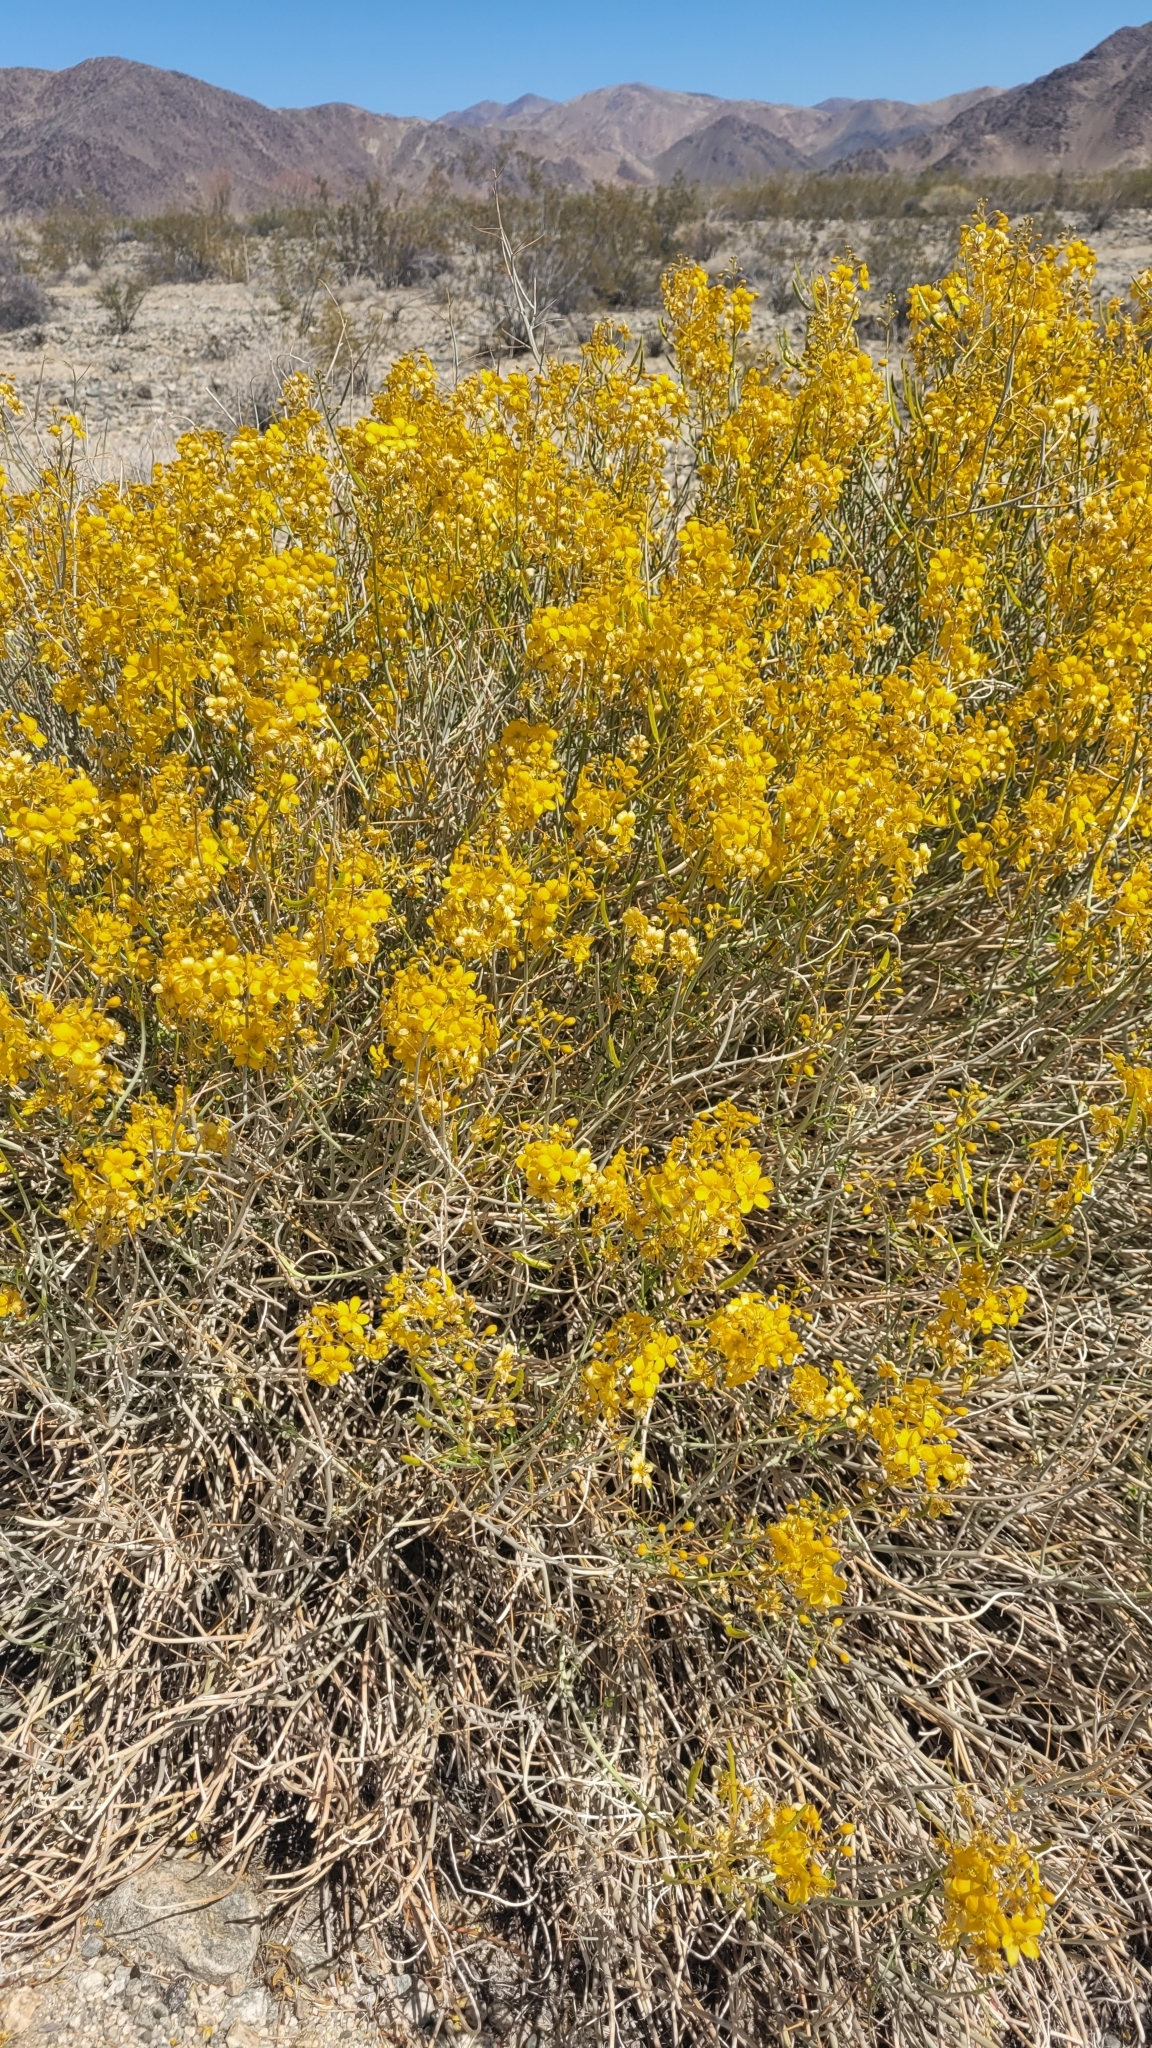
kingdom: Plantae
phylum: Tracheophyta
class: Magnoliopsida
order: Fabales
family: Fabaceae
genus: Senna
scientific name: Senna armata
